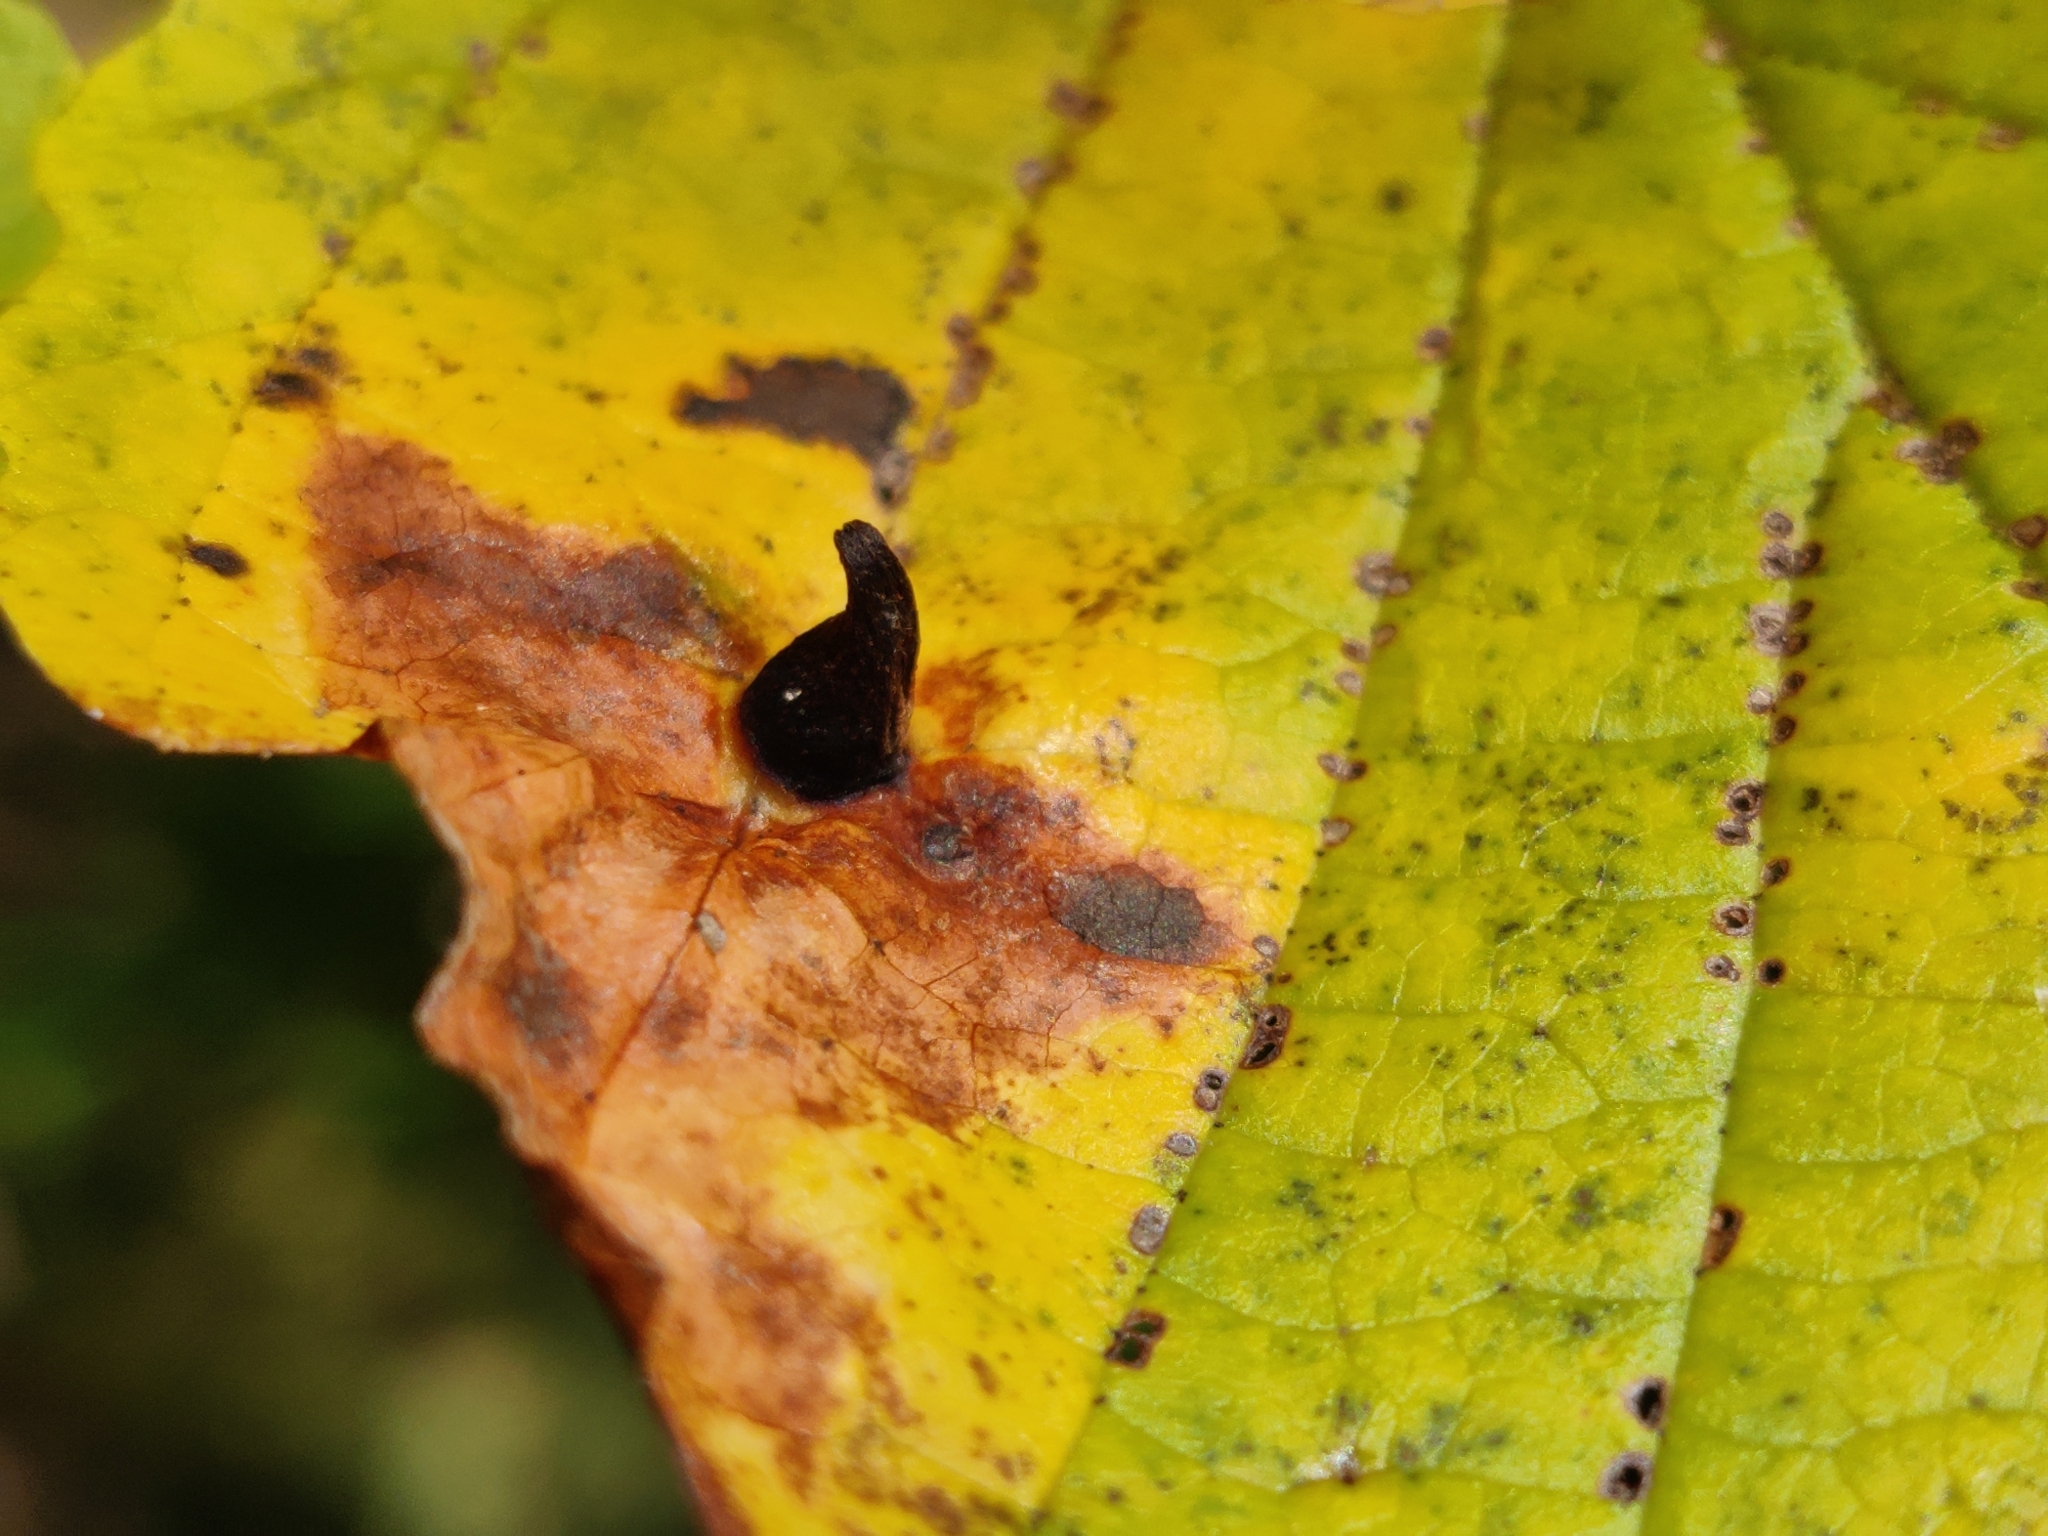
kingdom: Animalia
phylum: Arthropoda
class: Insecta
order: Hemiptera
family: Aphididae
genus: Hormaphis
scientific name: Hormaphis hamamelidis
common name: Witch-hazel cone gall aphid
